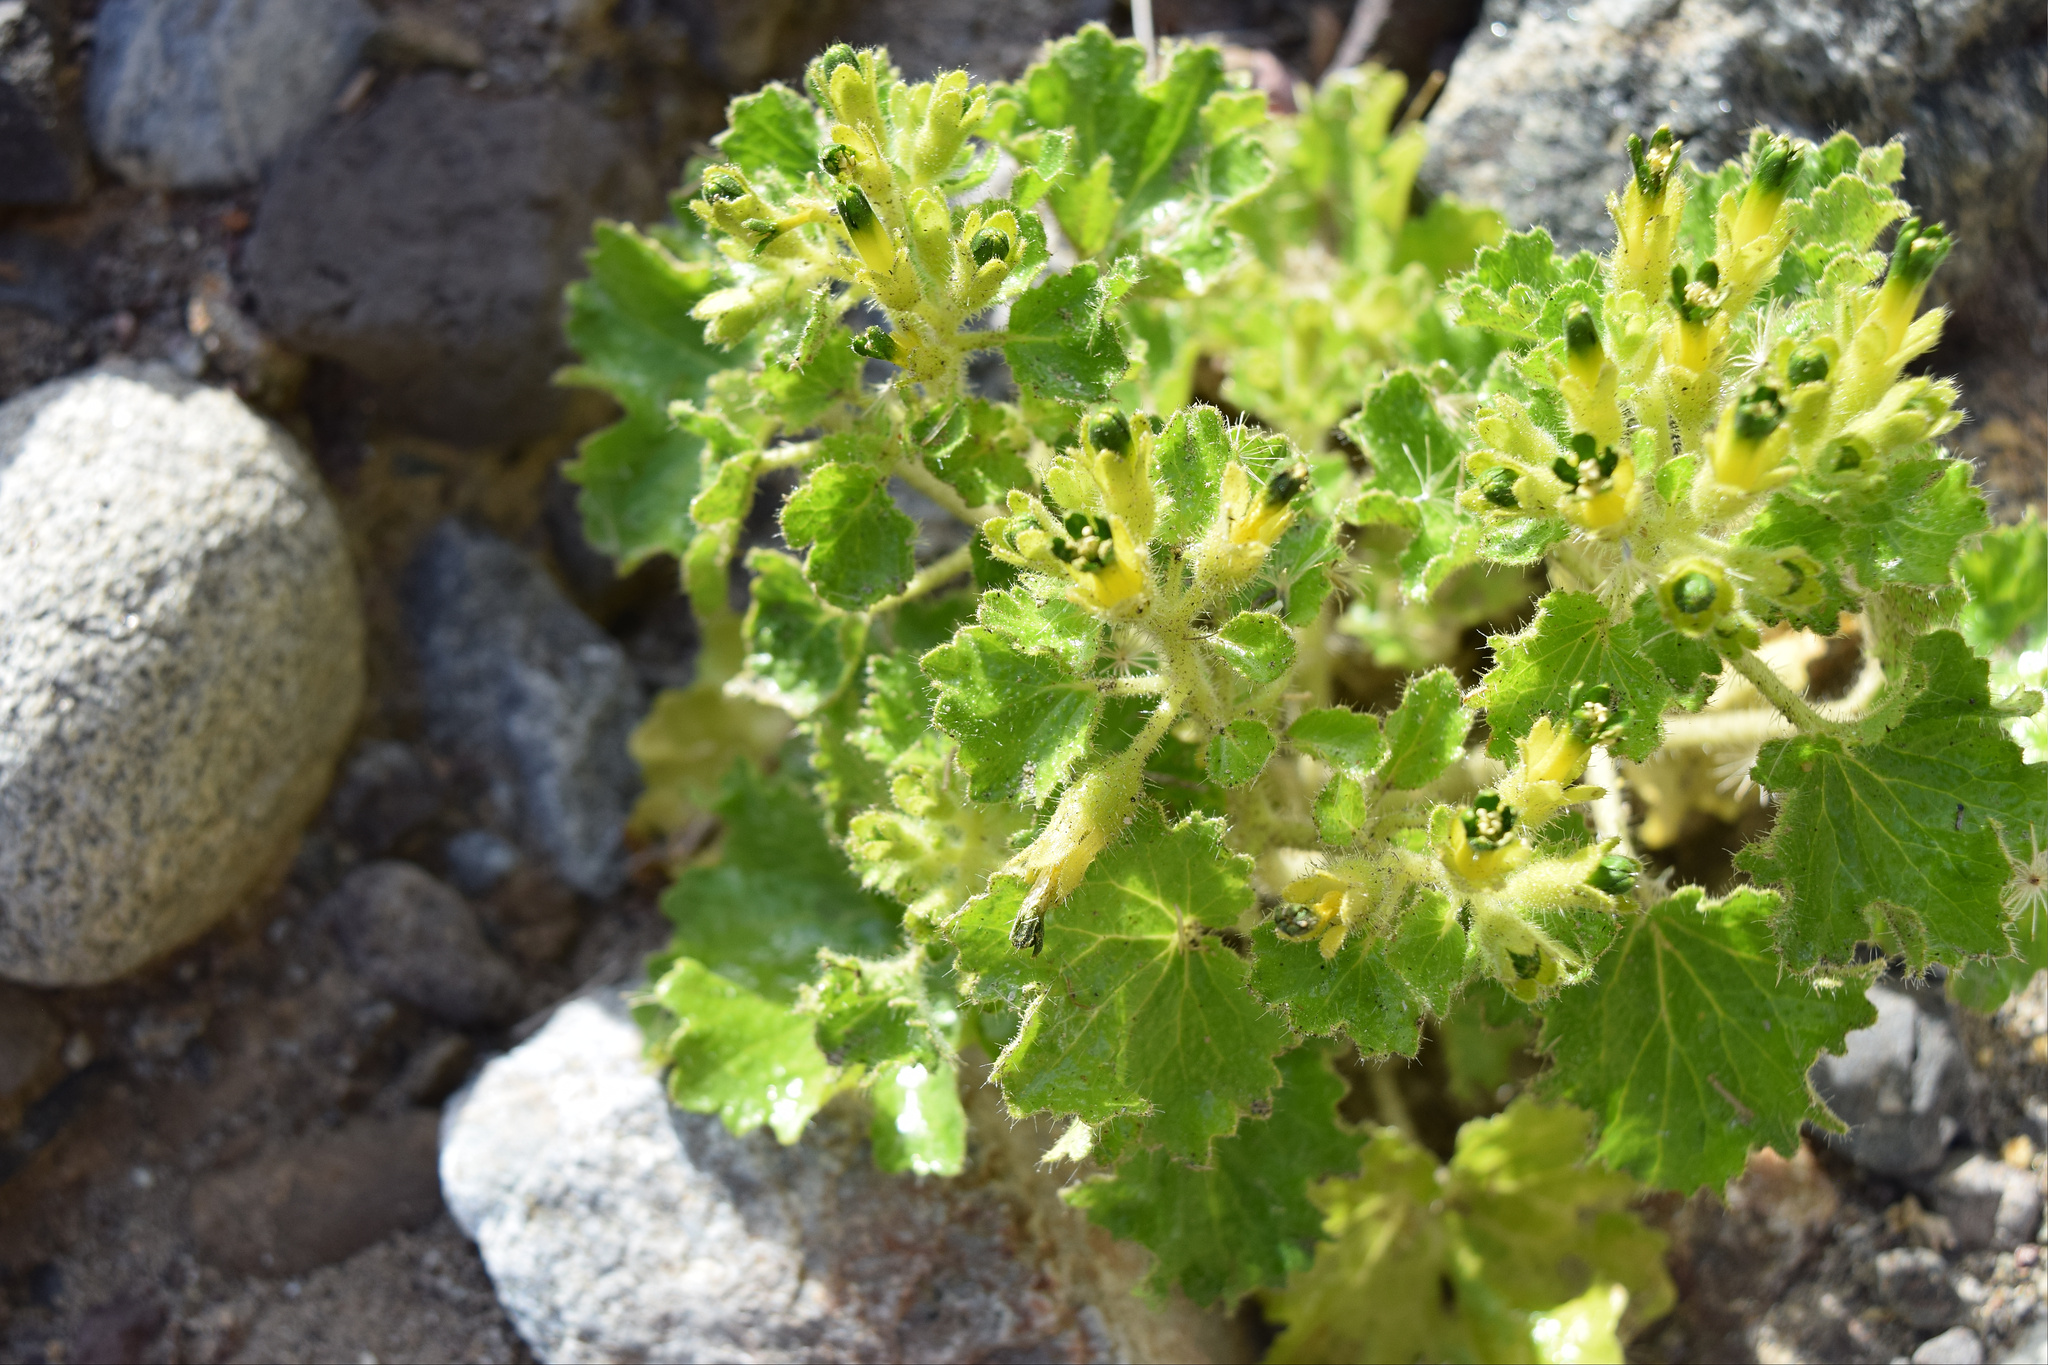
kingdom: Plantae
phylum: Tracheophyta
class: Magnoliopsida
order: Cornales
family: Loasaceae
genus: Eucnide
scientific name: Eucnide rupestris
